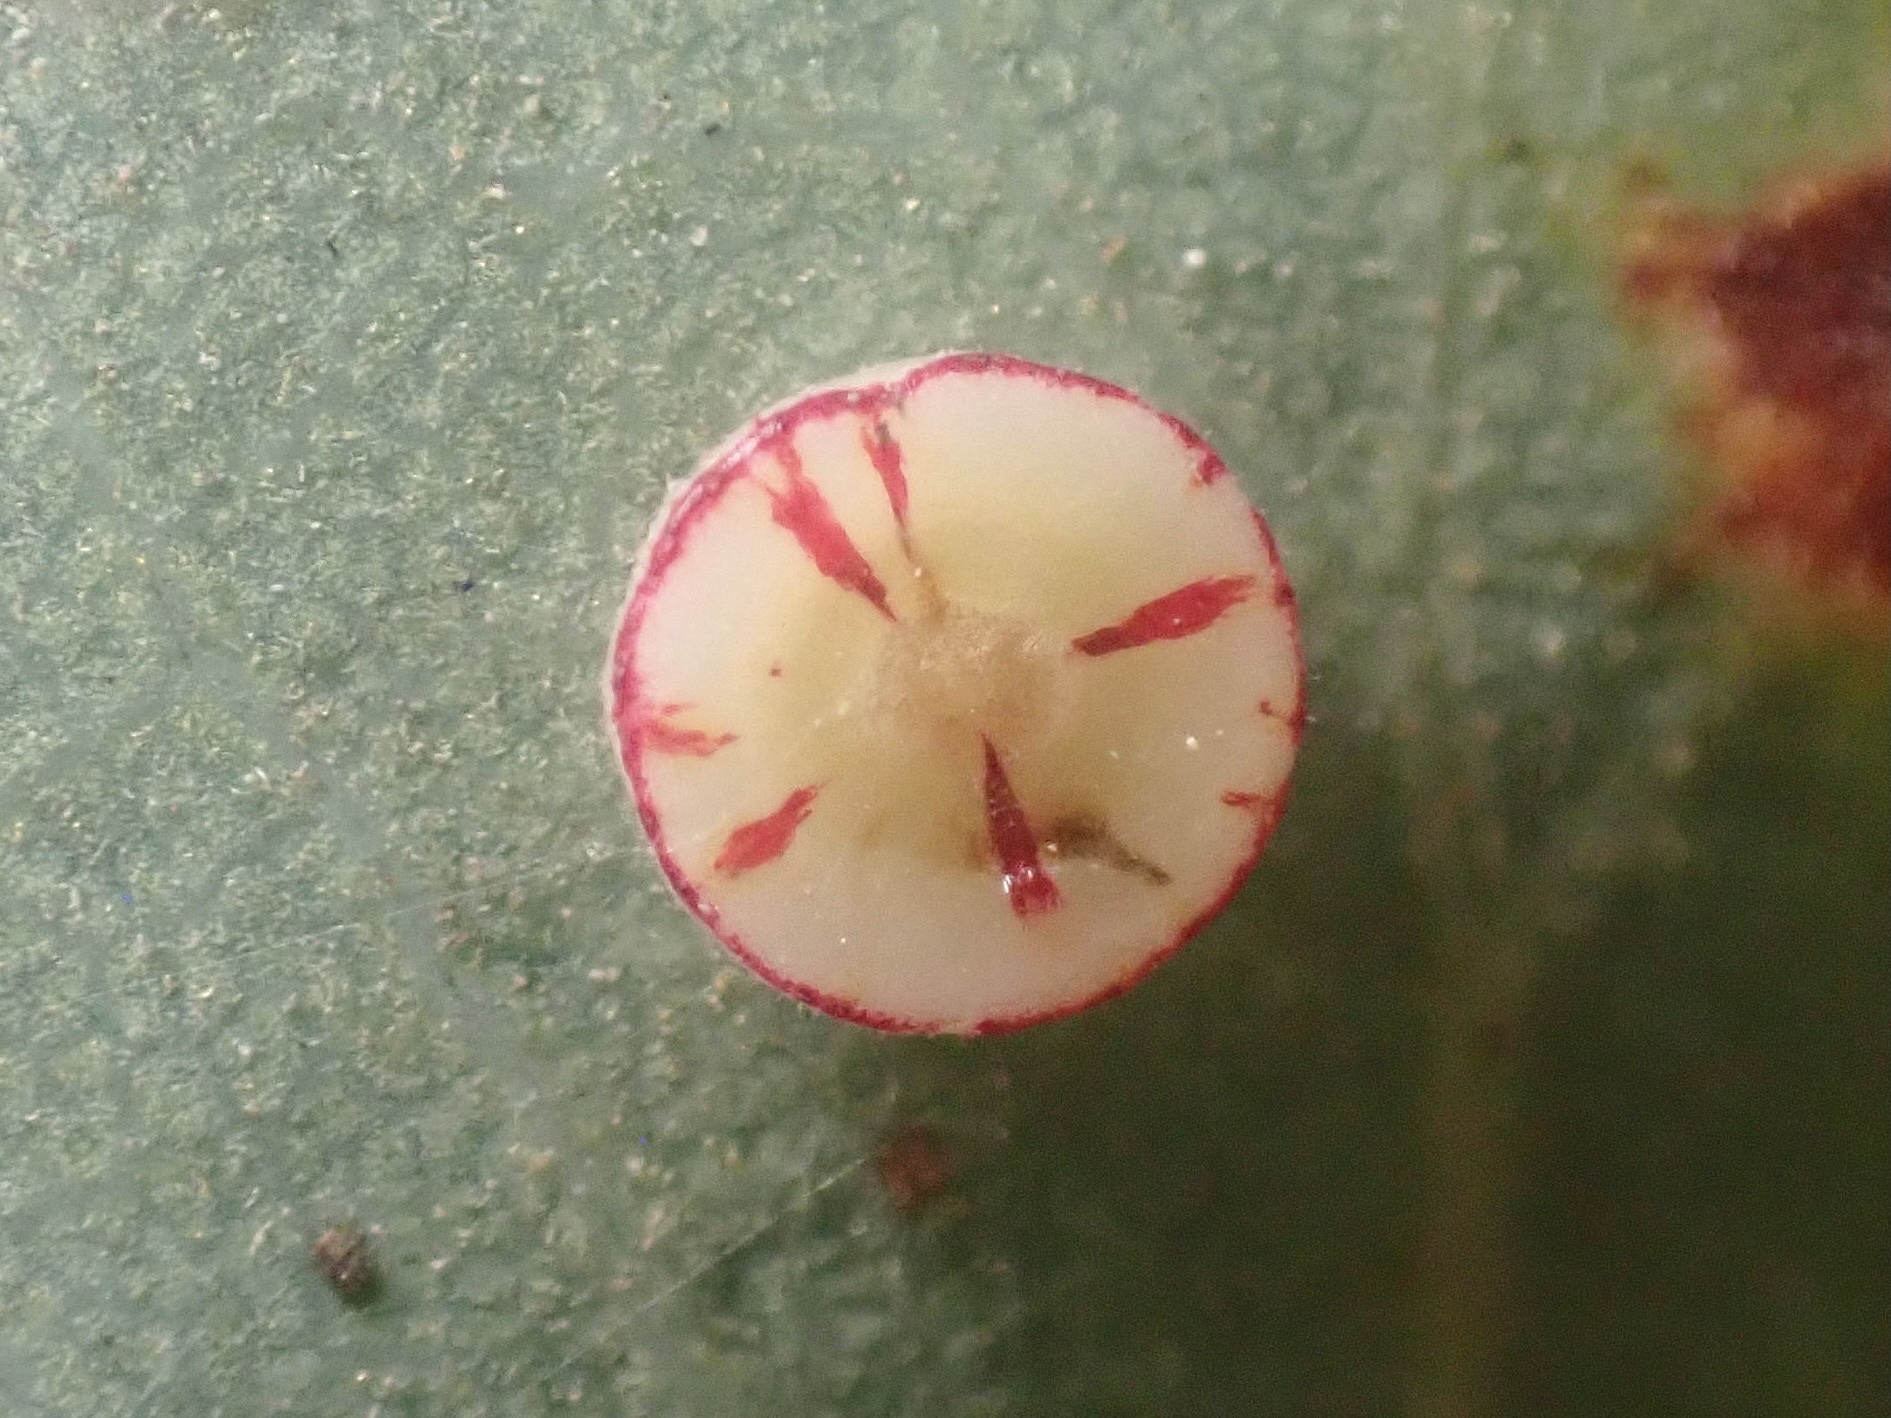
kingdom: Animalia
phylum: Arthropoda
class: Insecta
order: Hymenoptera
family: Cynipidae
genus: Andricus
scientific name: Andricus
